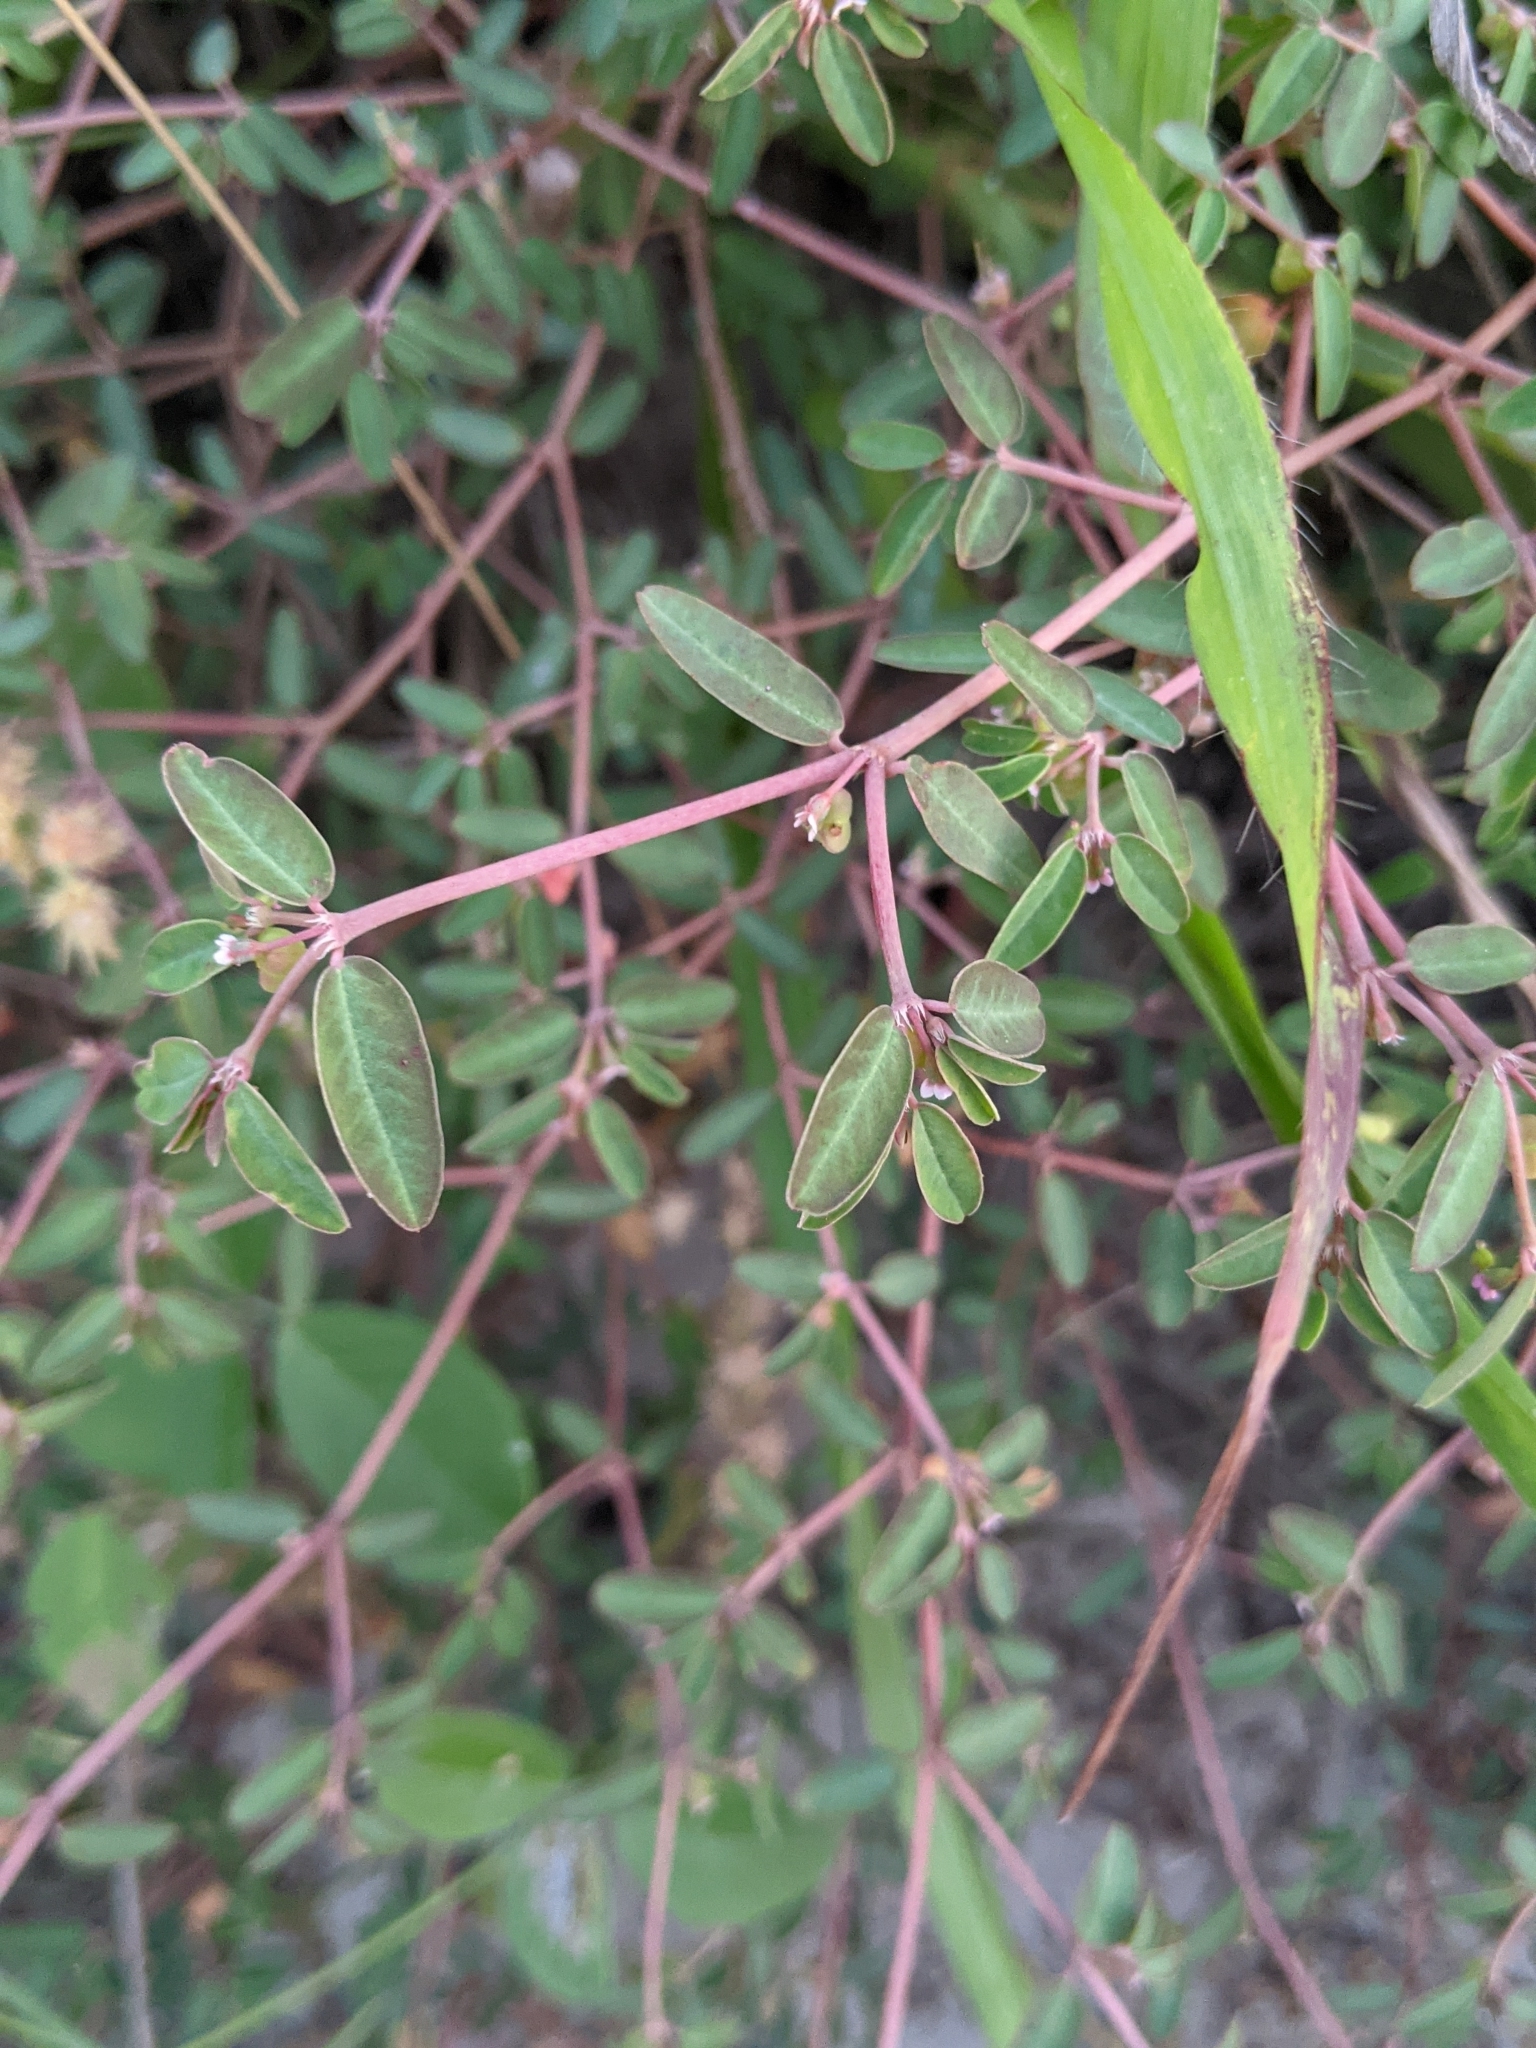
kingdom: Plantae
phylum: Tracheophyta
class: Magnoliopsida
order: Malpighiales
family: Euphorbiaceae
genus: Euphorbia
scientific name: Euphorbia bombensis
